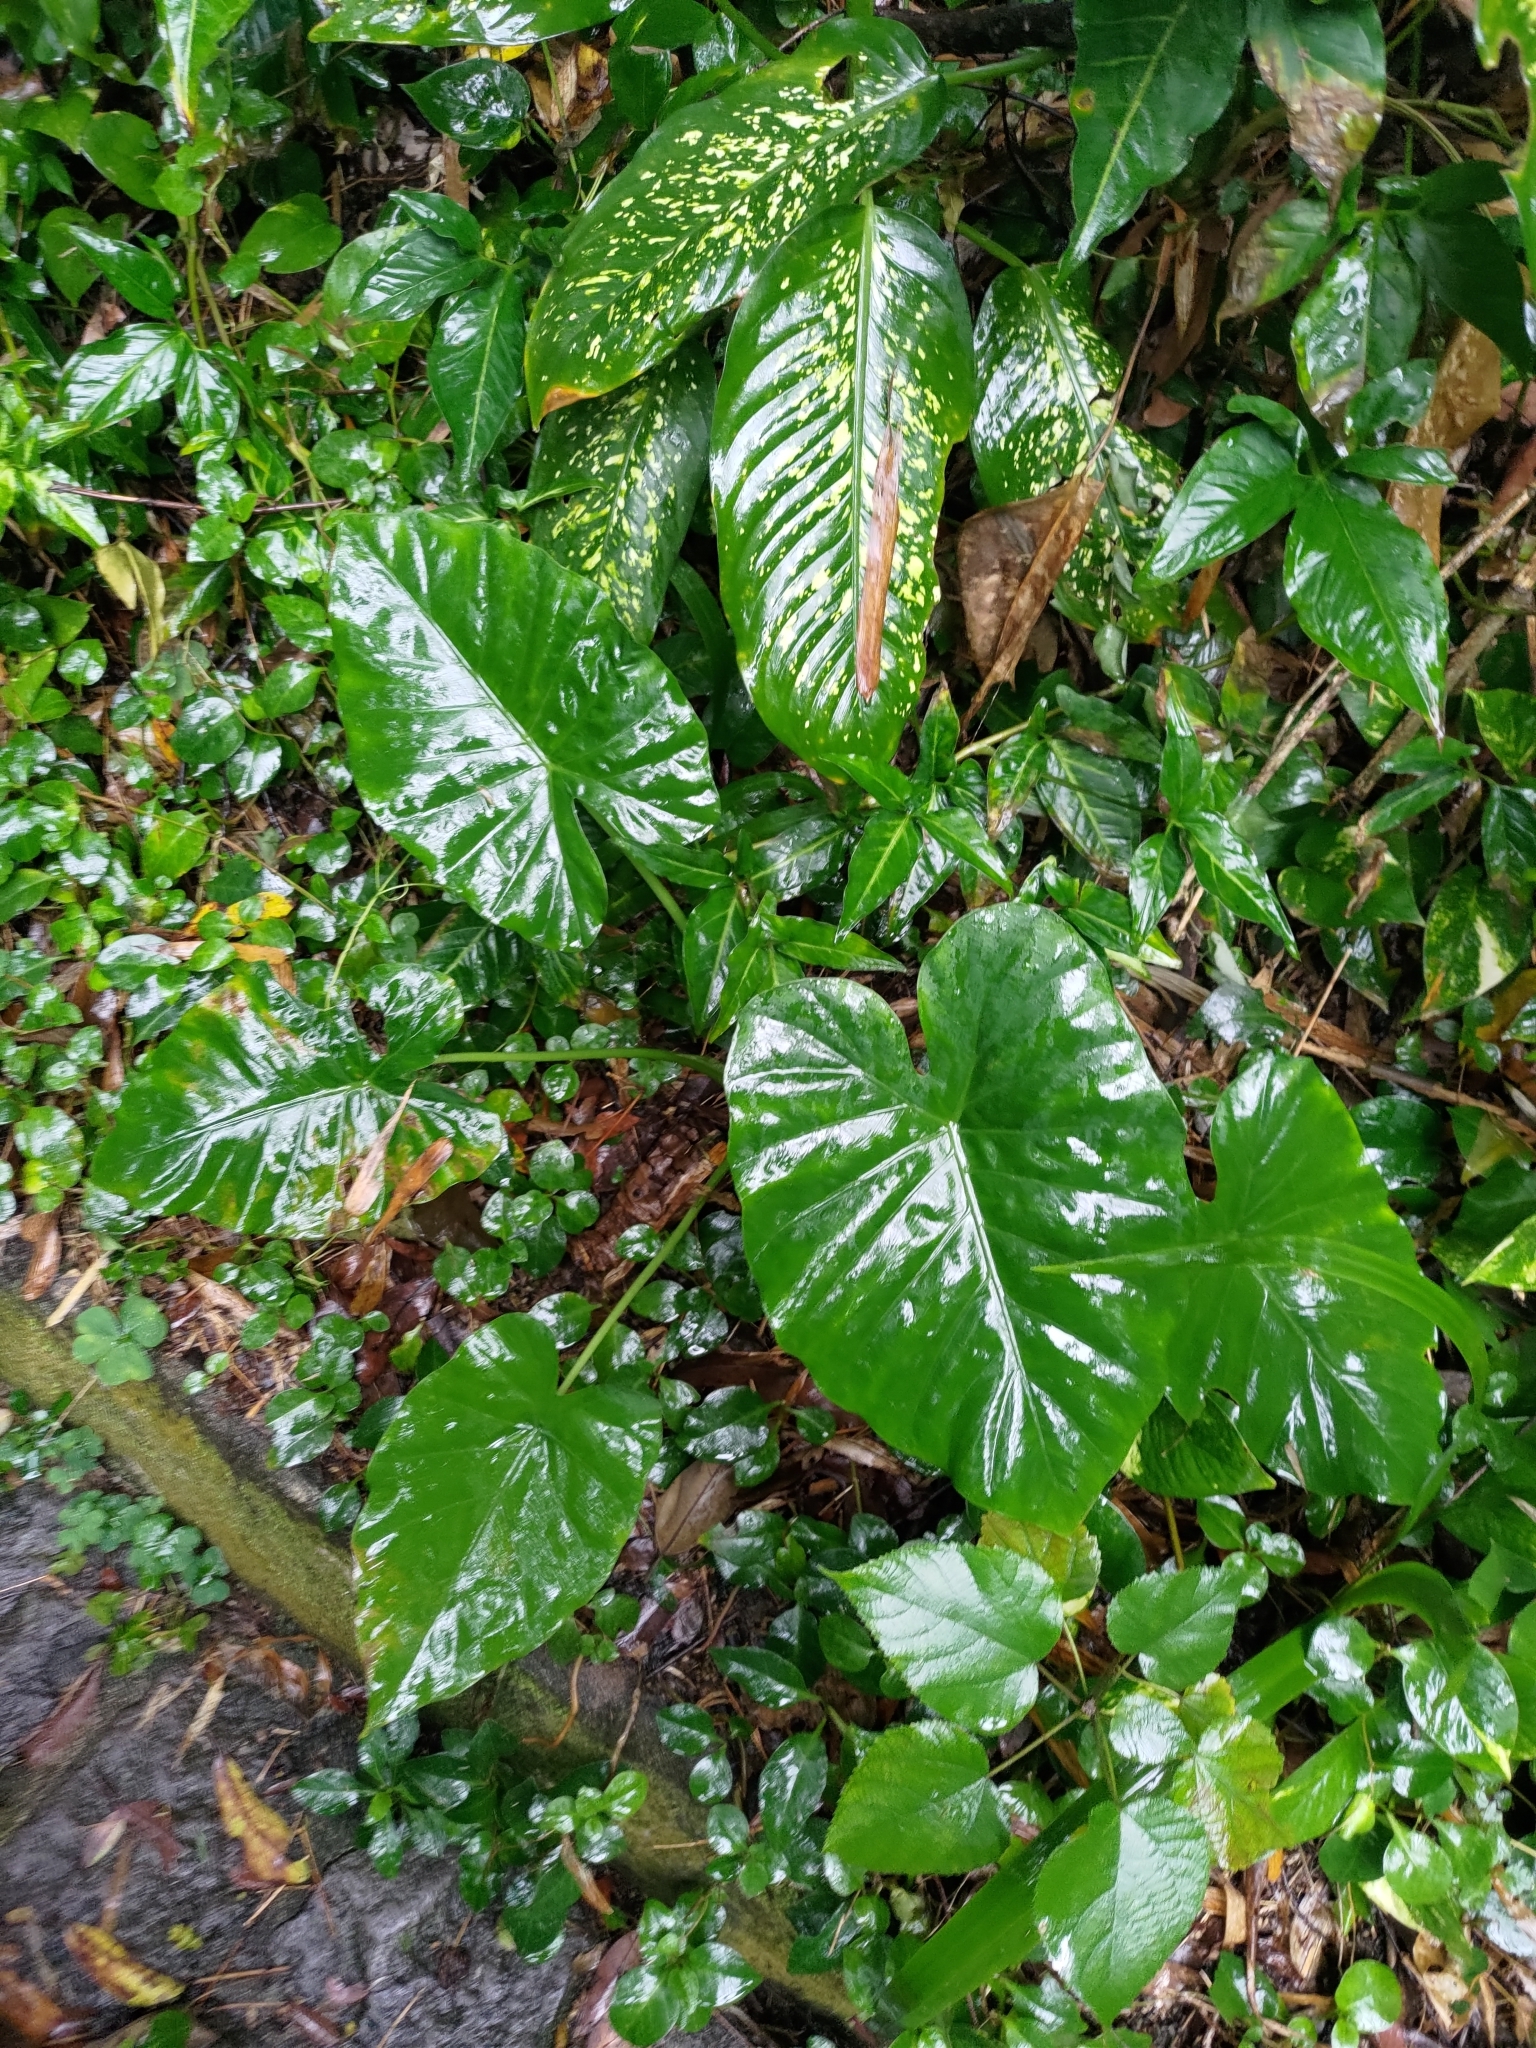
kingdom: Plantae
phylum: Tracheophyta
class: Liliopsida
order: Alismatales
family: Araceae
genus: Alocasia
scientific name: Alocasia odora
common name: Asian taro
